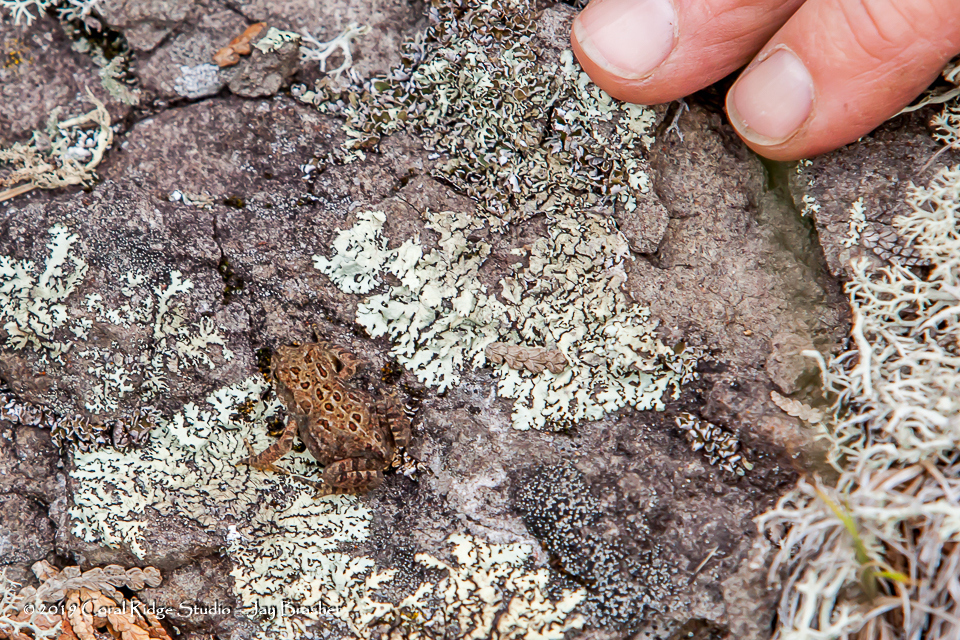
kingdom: Animalia
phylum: Chordata
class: Amphibia
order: Anura
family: Bufonidae
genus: Anaxyrus
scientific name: Anaxyrus americanus
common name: American toad
